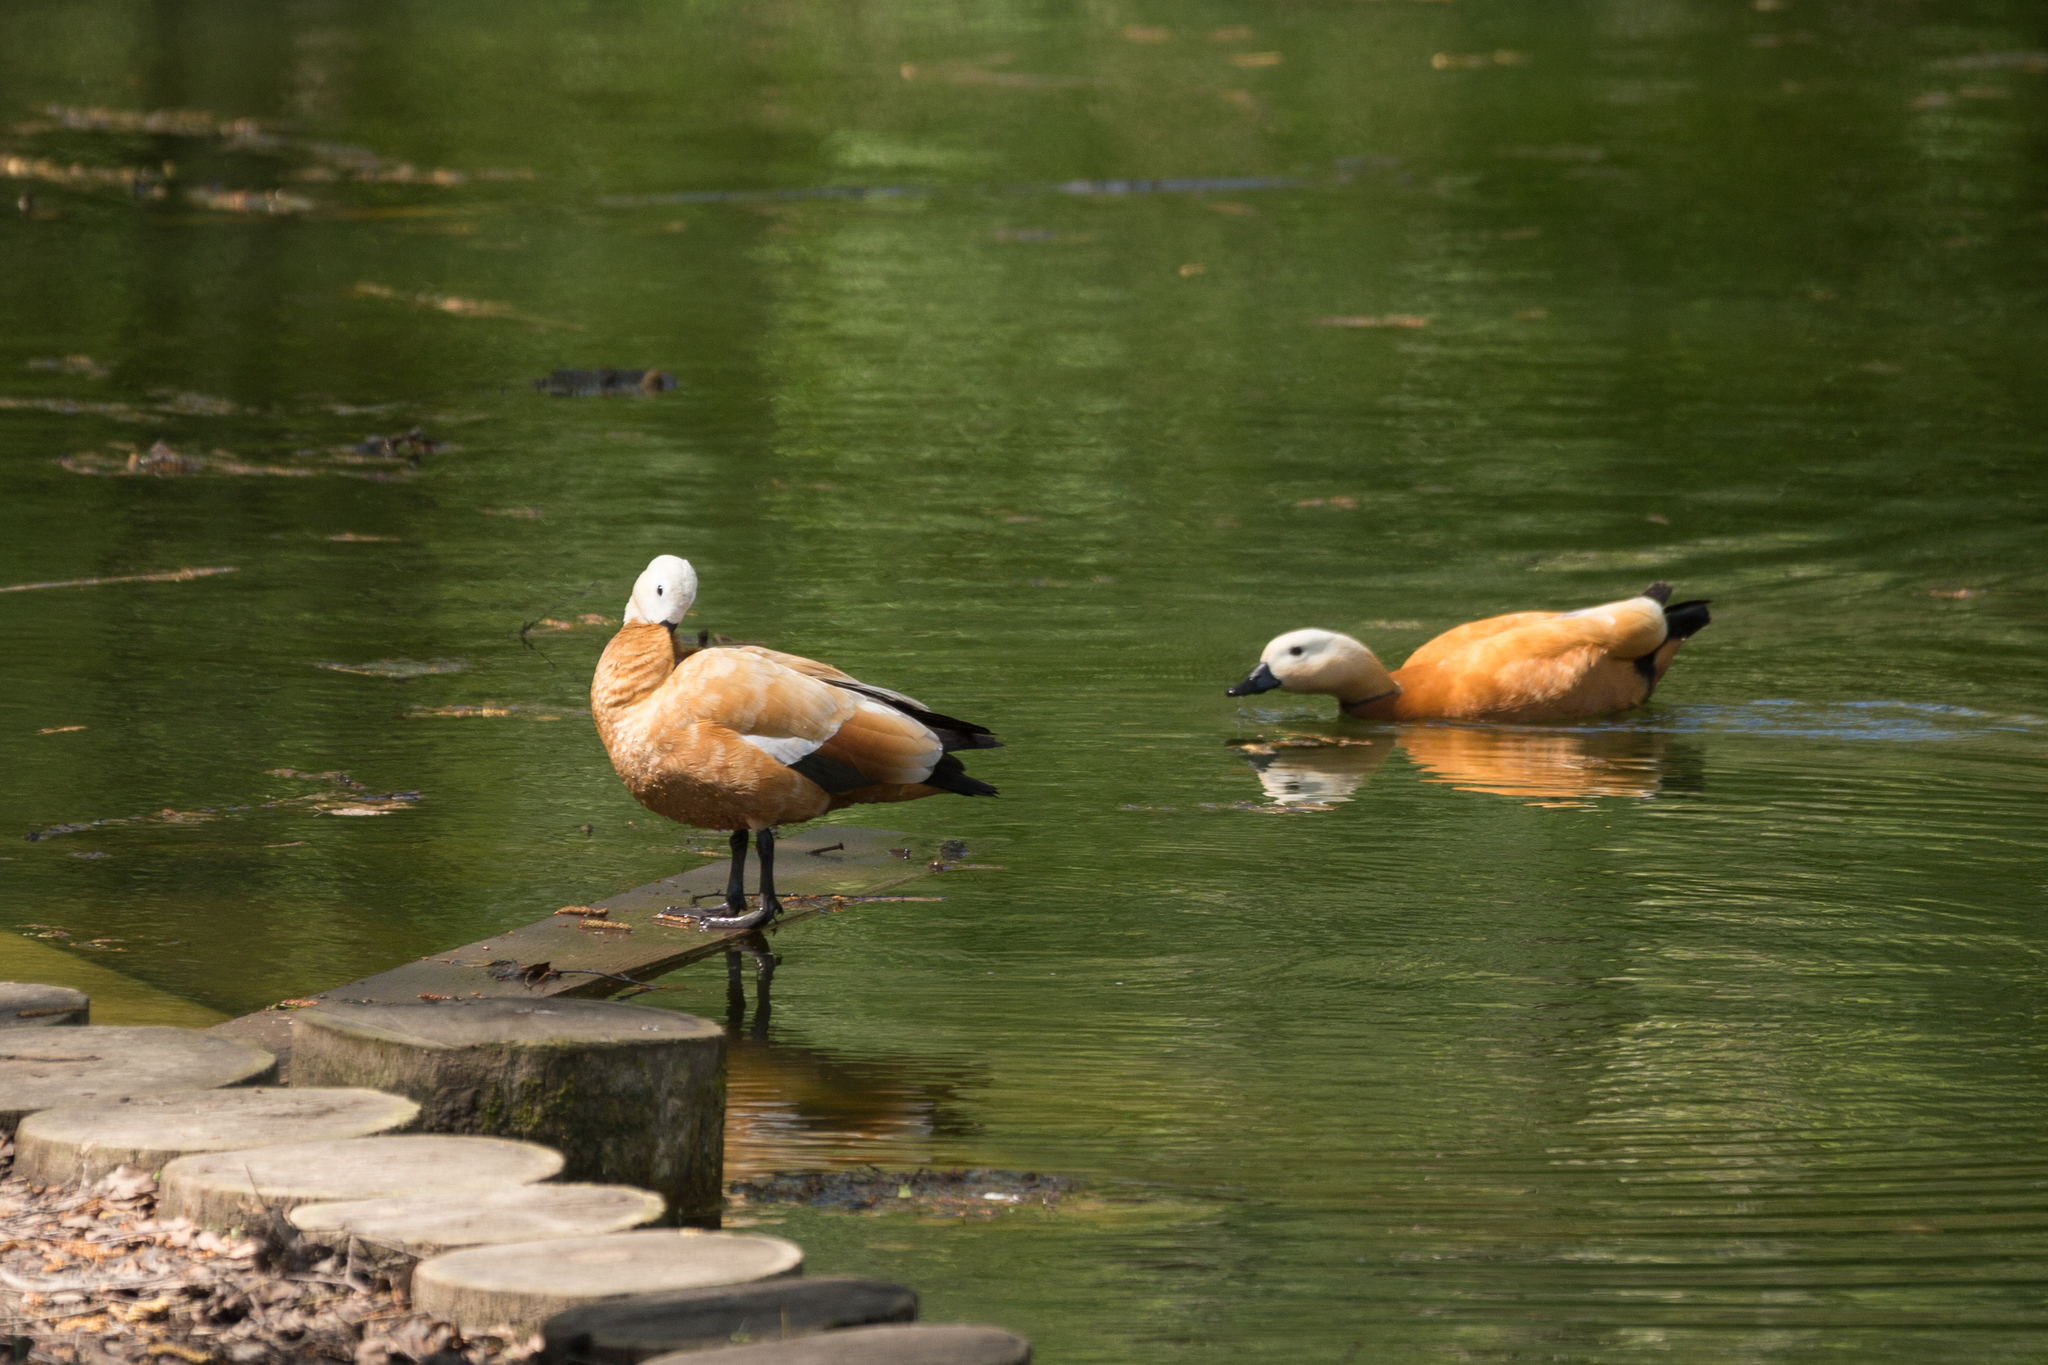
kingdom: Animalia
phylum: Chordata
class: Aves
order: Anseriformes
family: Anatidae
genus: Tadorna
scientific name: Tadorna ferruginea
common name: Ruddy shelduck
